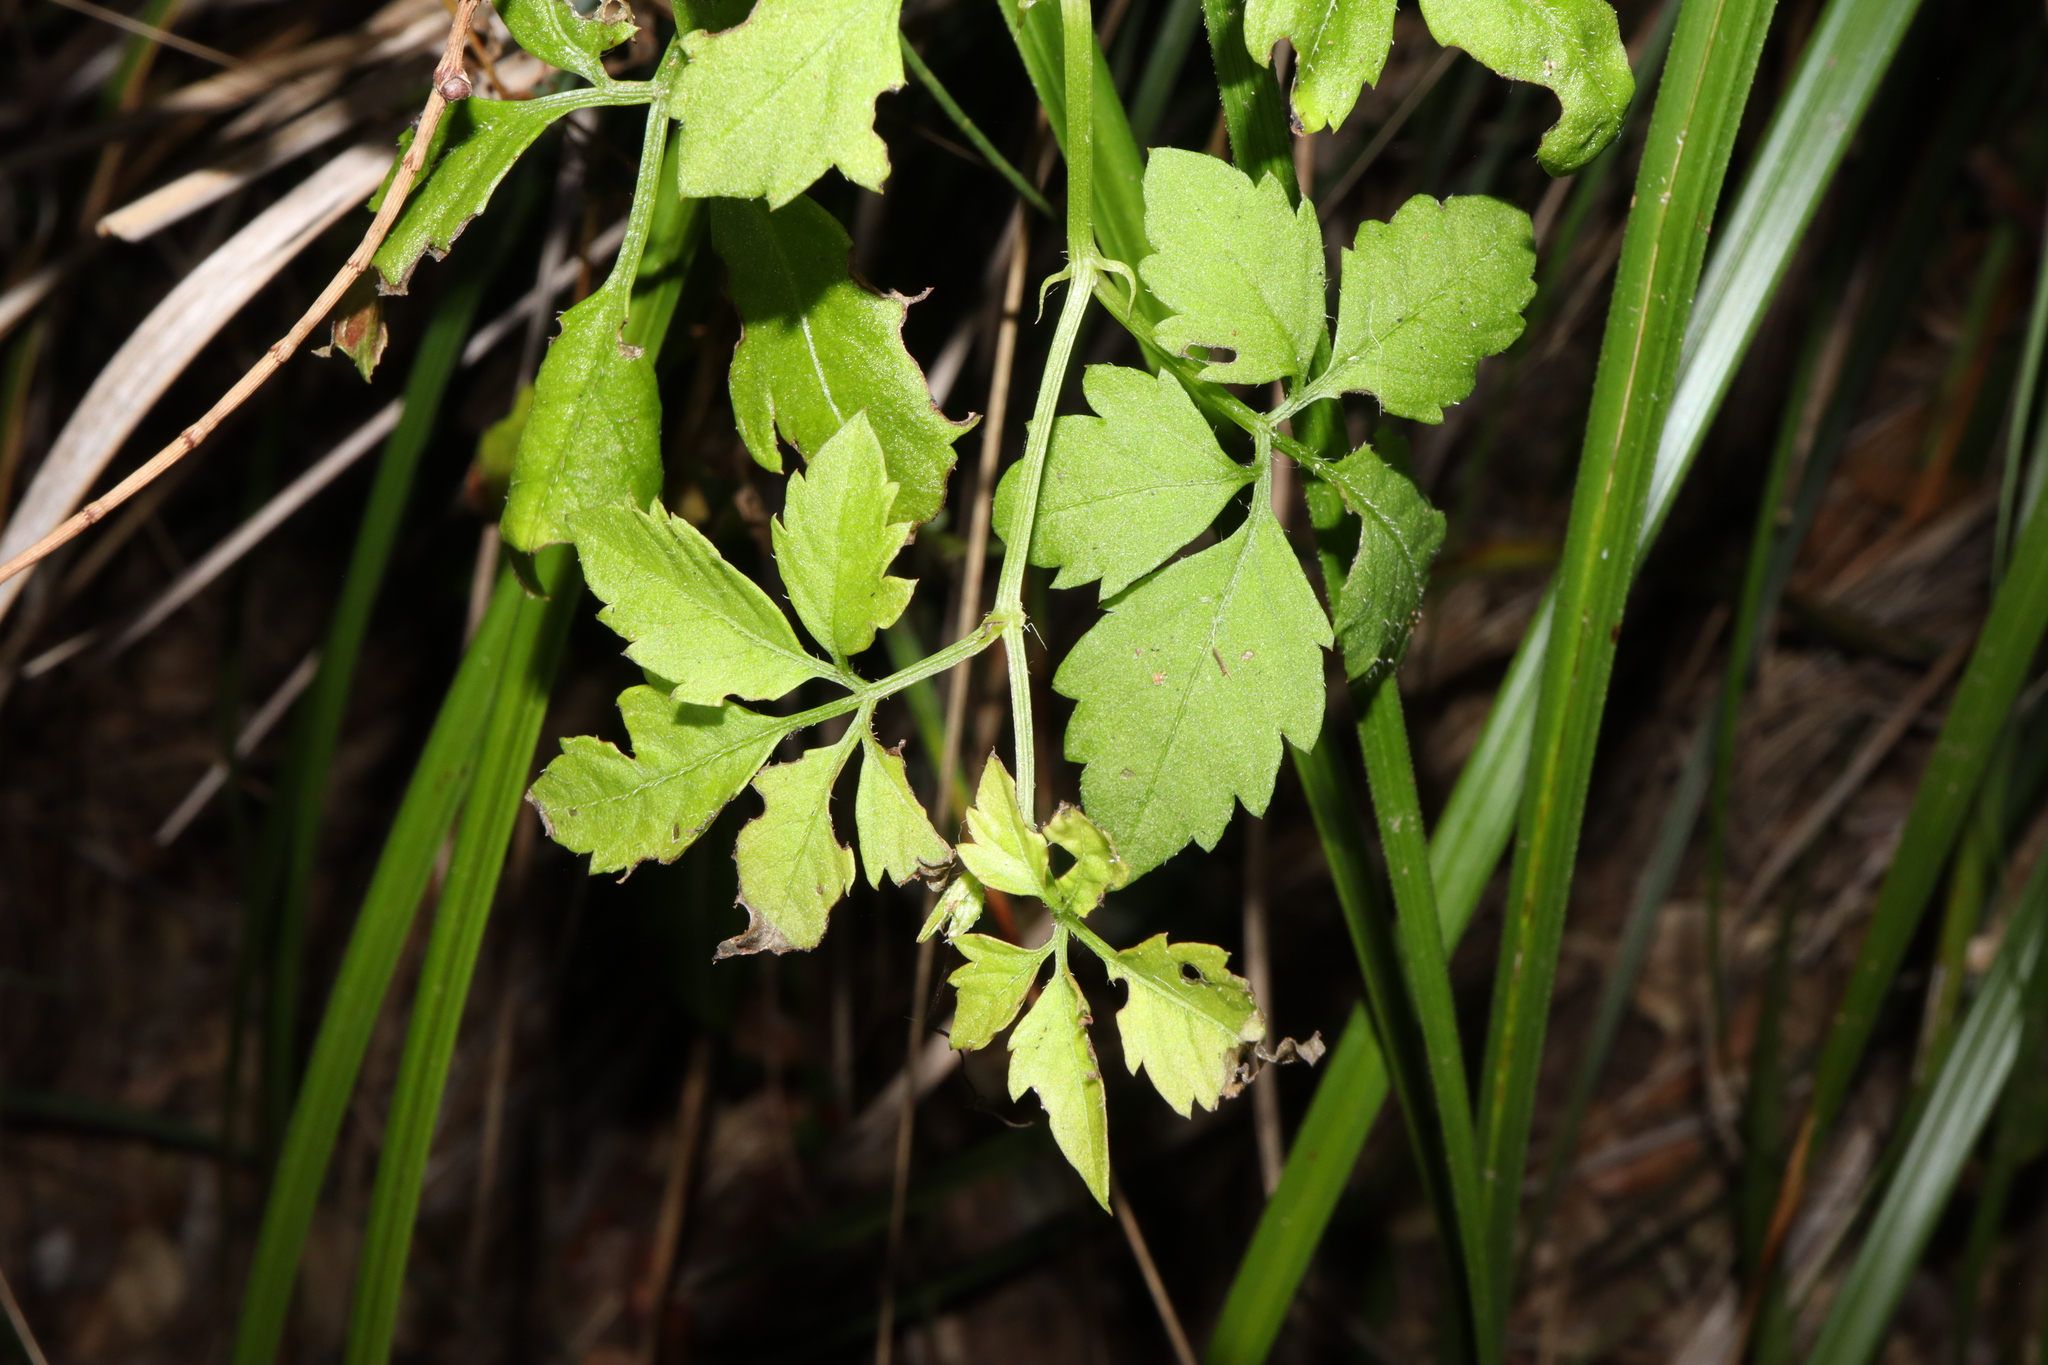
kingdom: Plantae
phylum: Tracheophyta
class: Magnoliopsida
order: Vitales
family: Vitaceae
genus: Causonis
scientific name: Causonis clematidea
